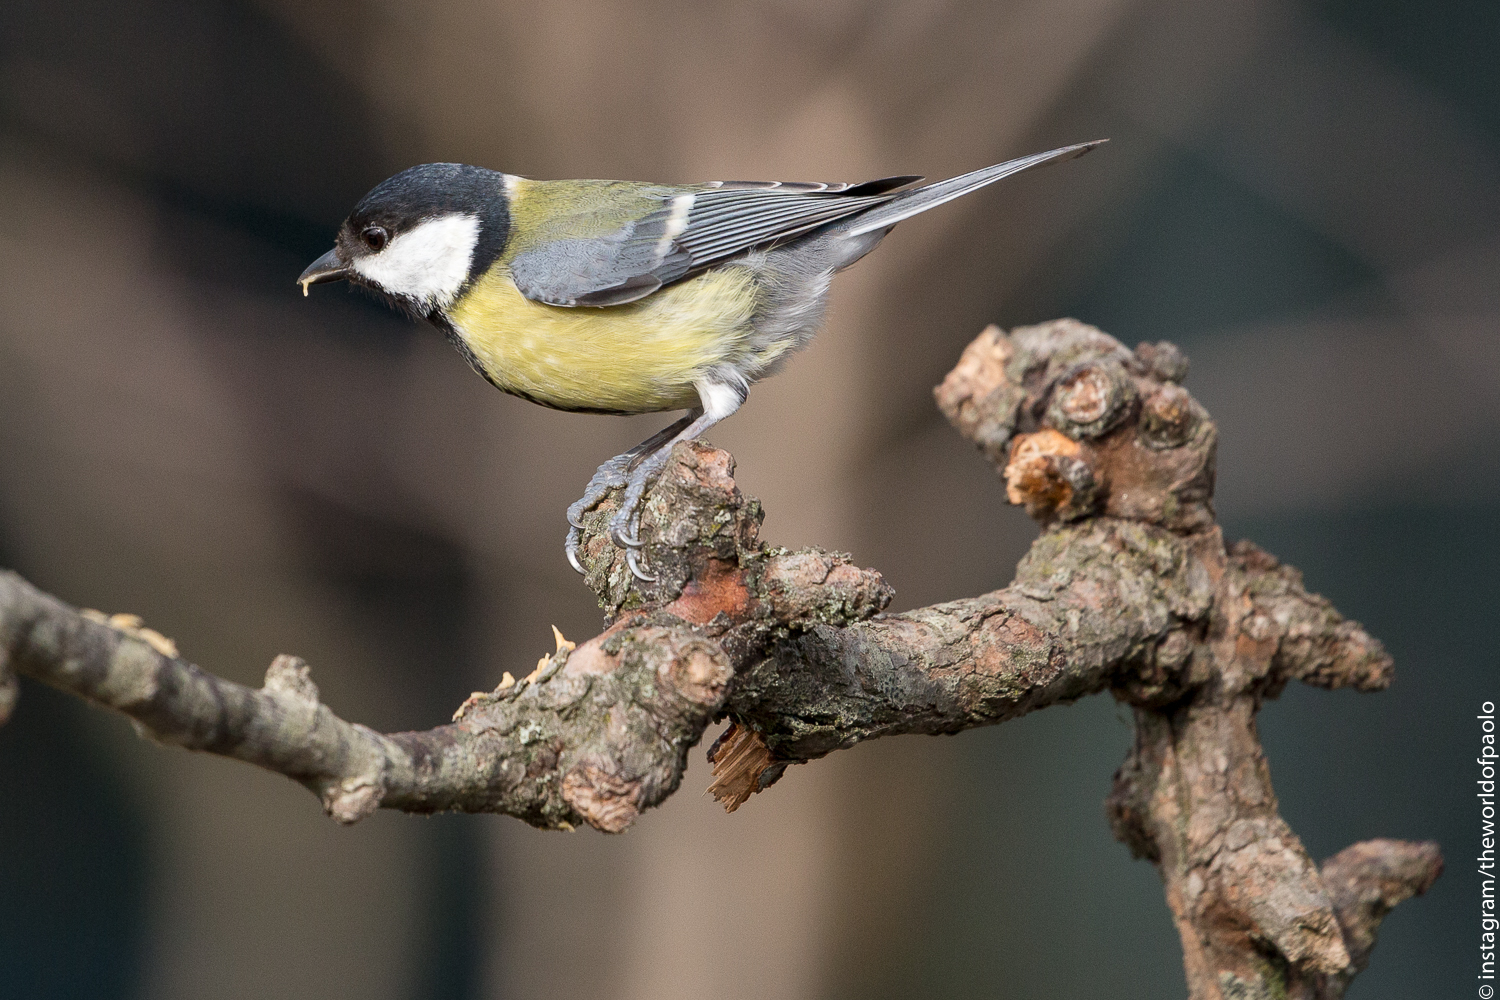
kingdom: Animalia
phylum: Chordata
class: Aves
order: Passeriformes
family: Paridae
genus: Parus
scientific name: Parus major
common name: Great tit
